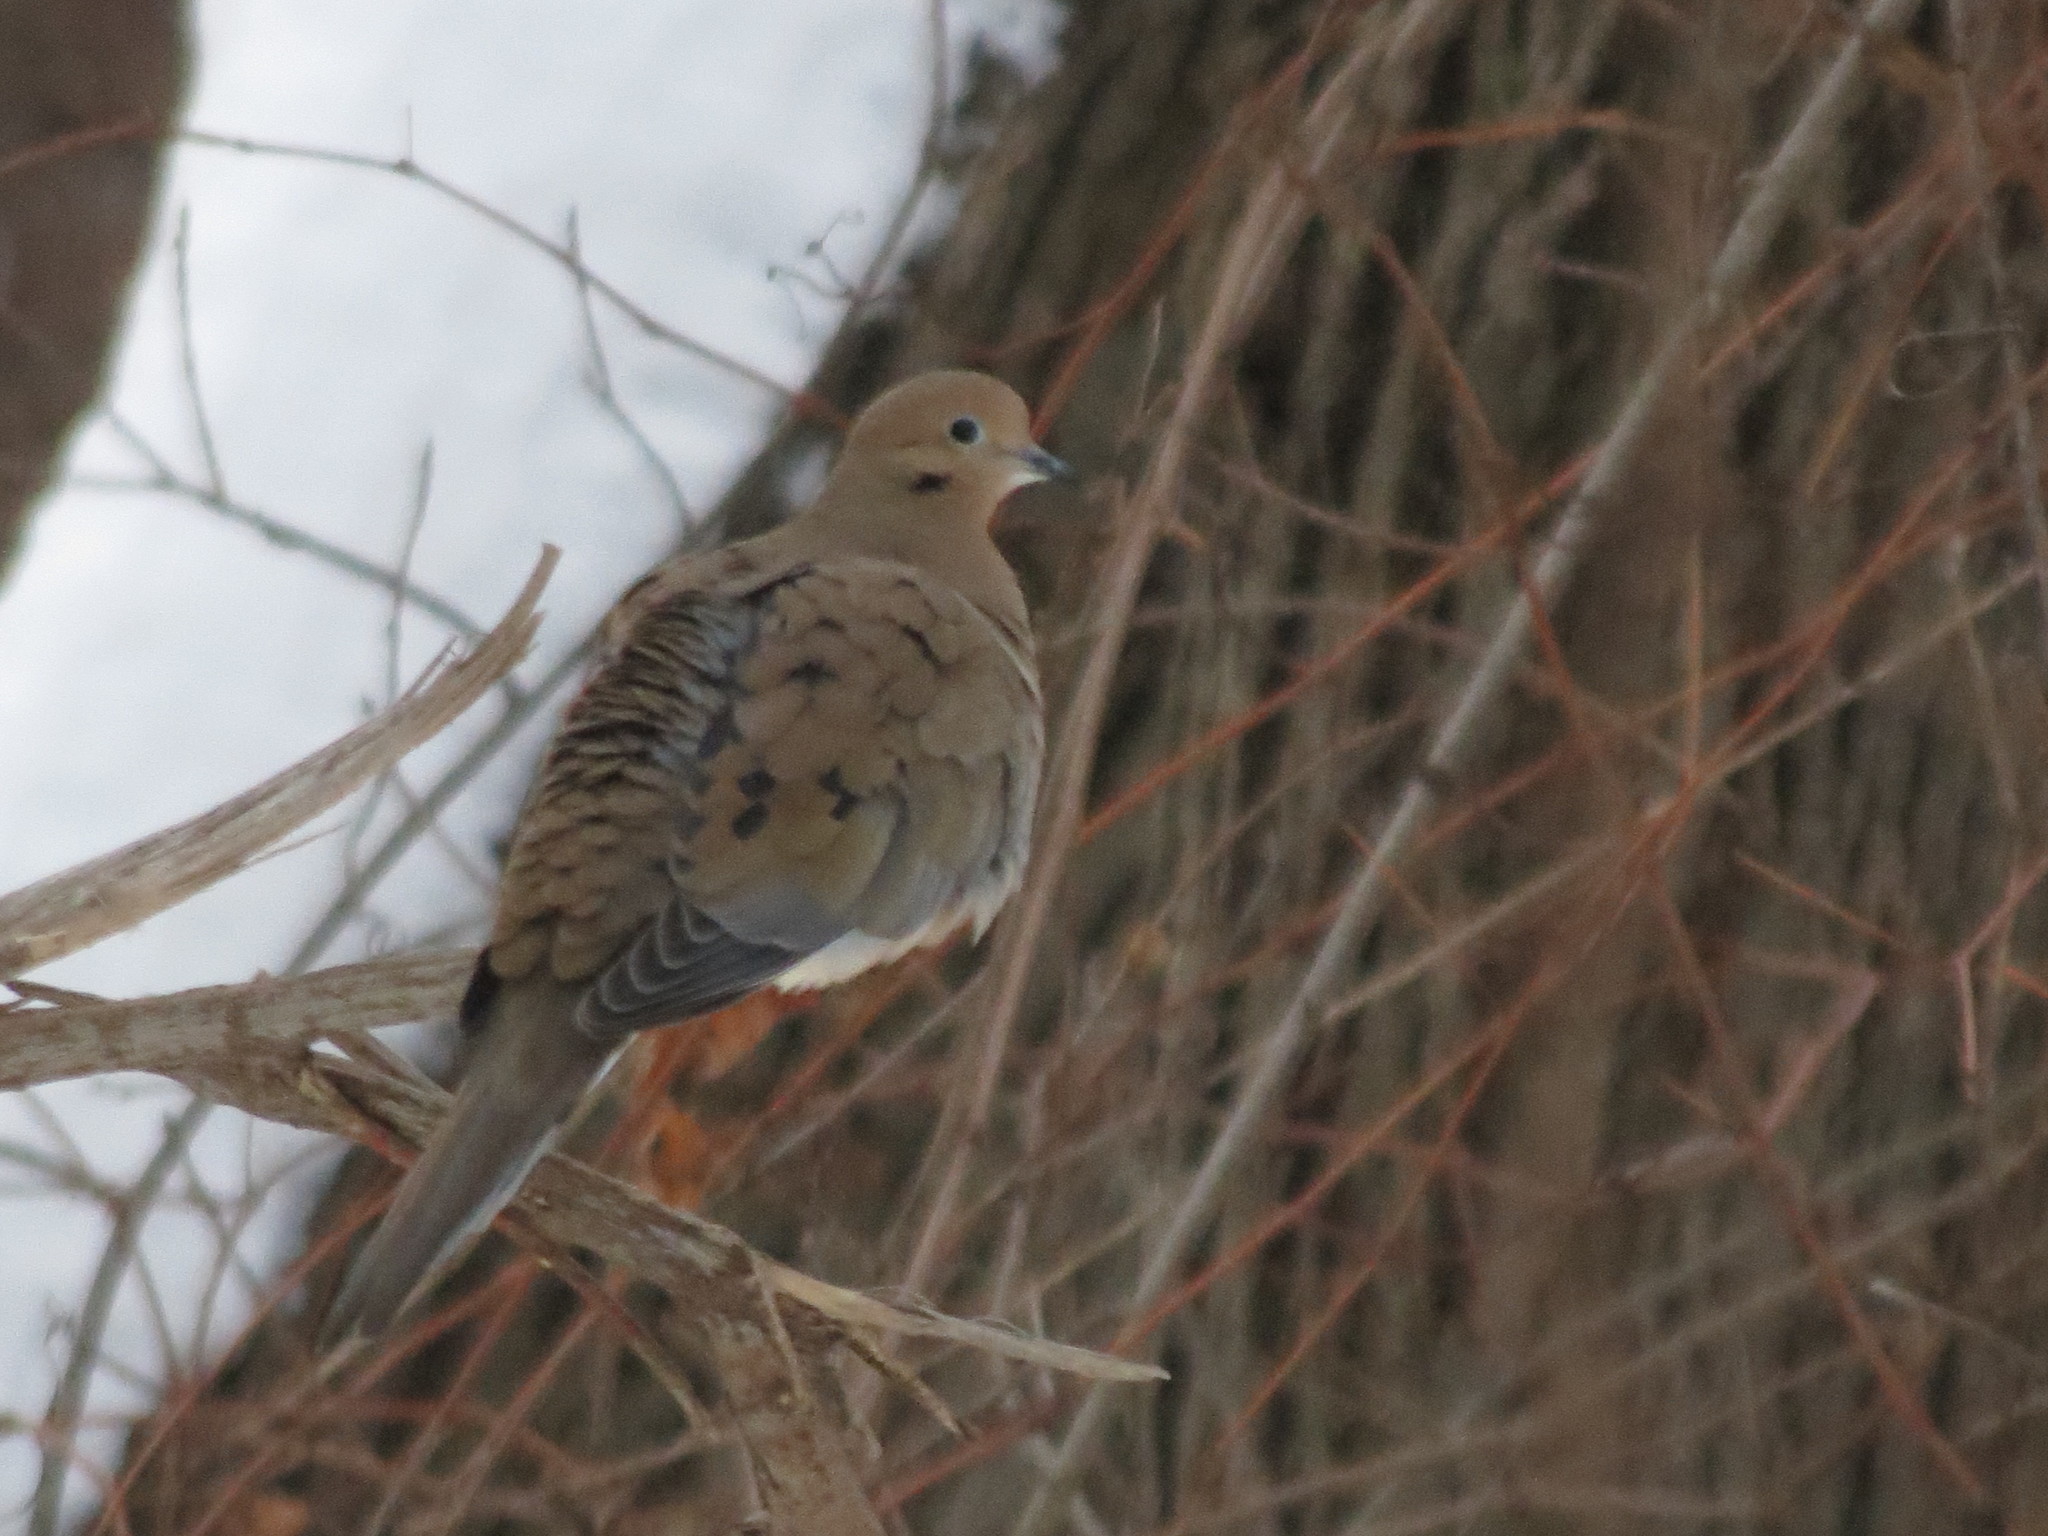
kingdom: Animalia
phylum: Chordata
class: Aves
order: Columbiformes
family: Columbidae
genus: Zenaida
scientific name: Zenaida macroura
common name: Mourning dove
